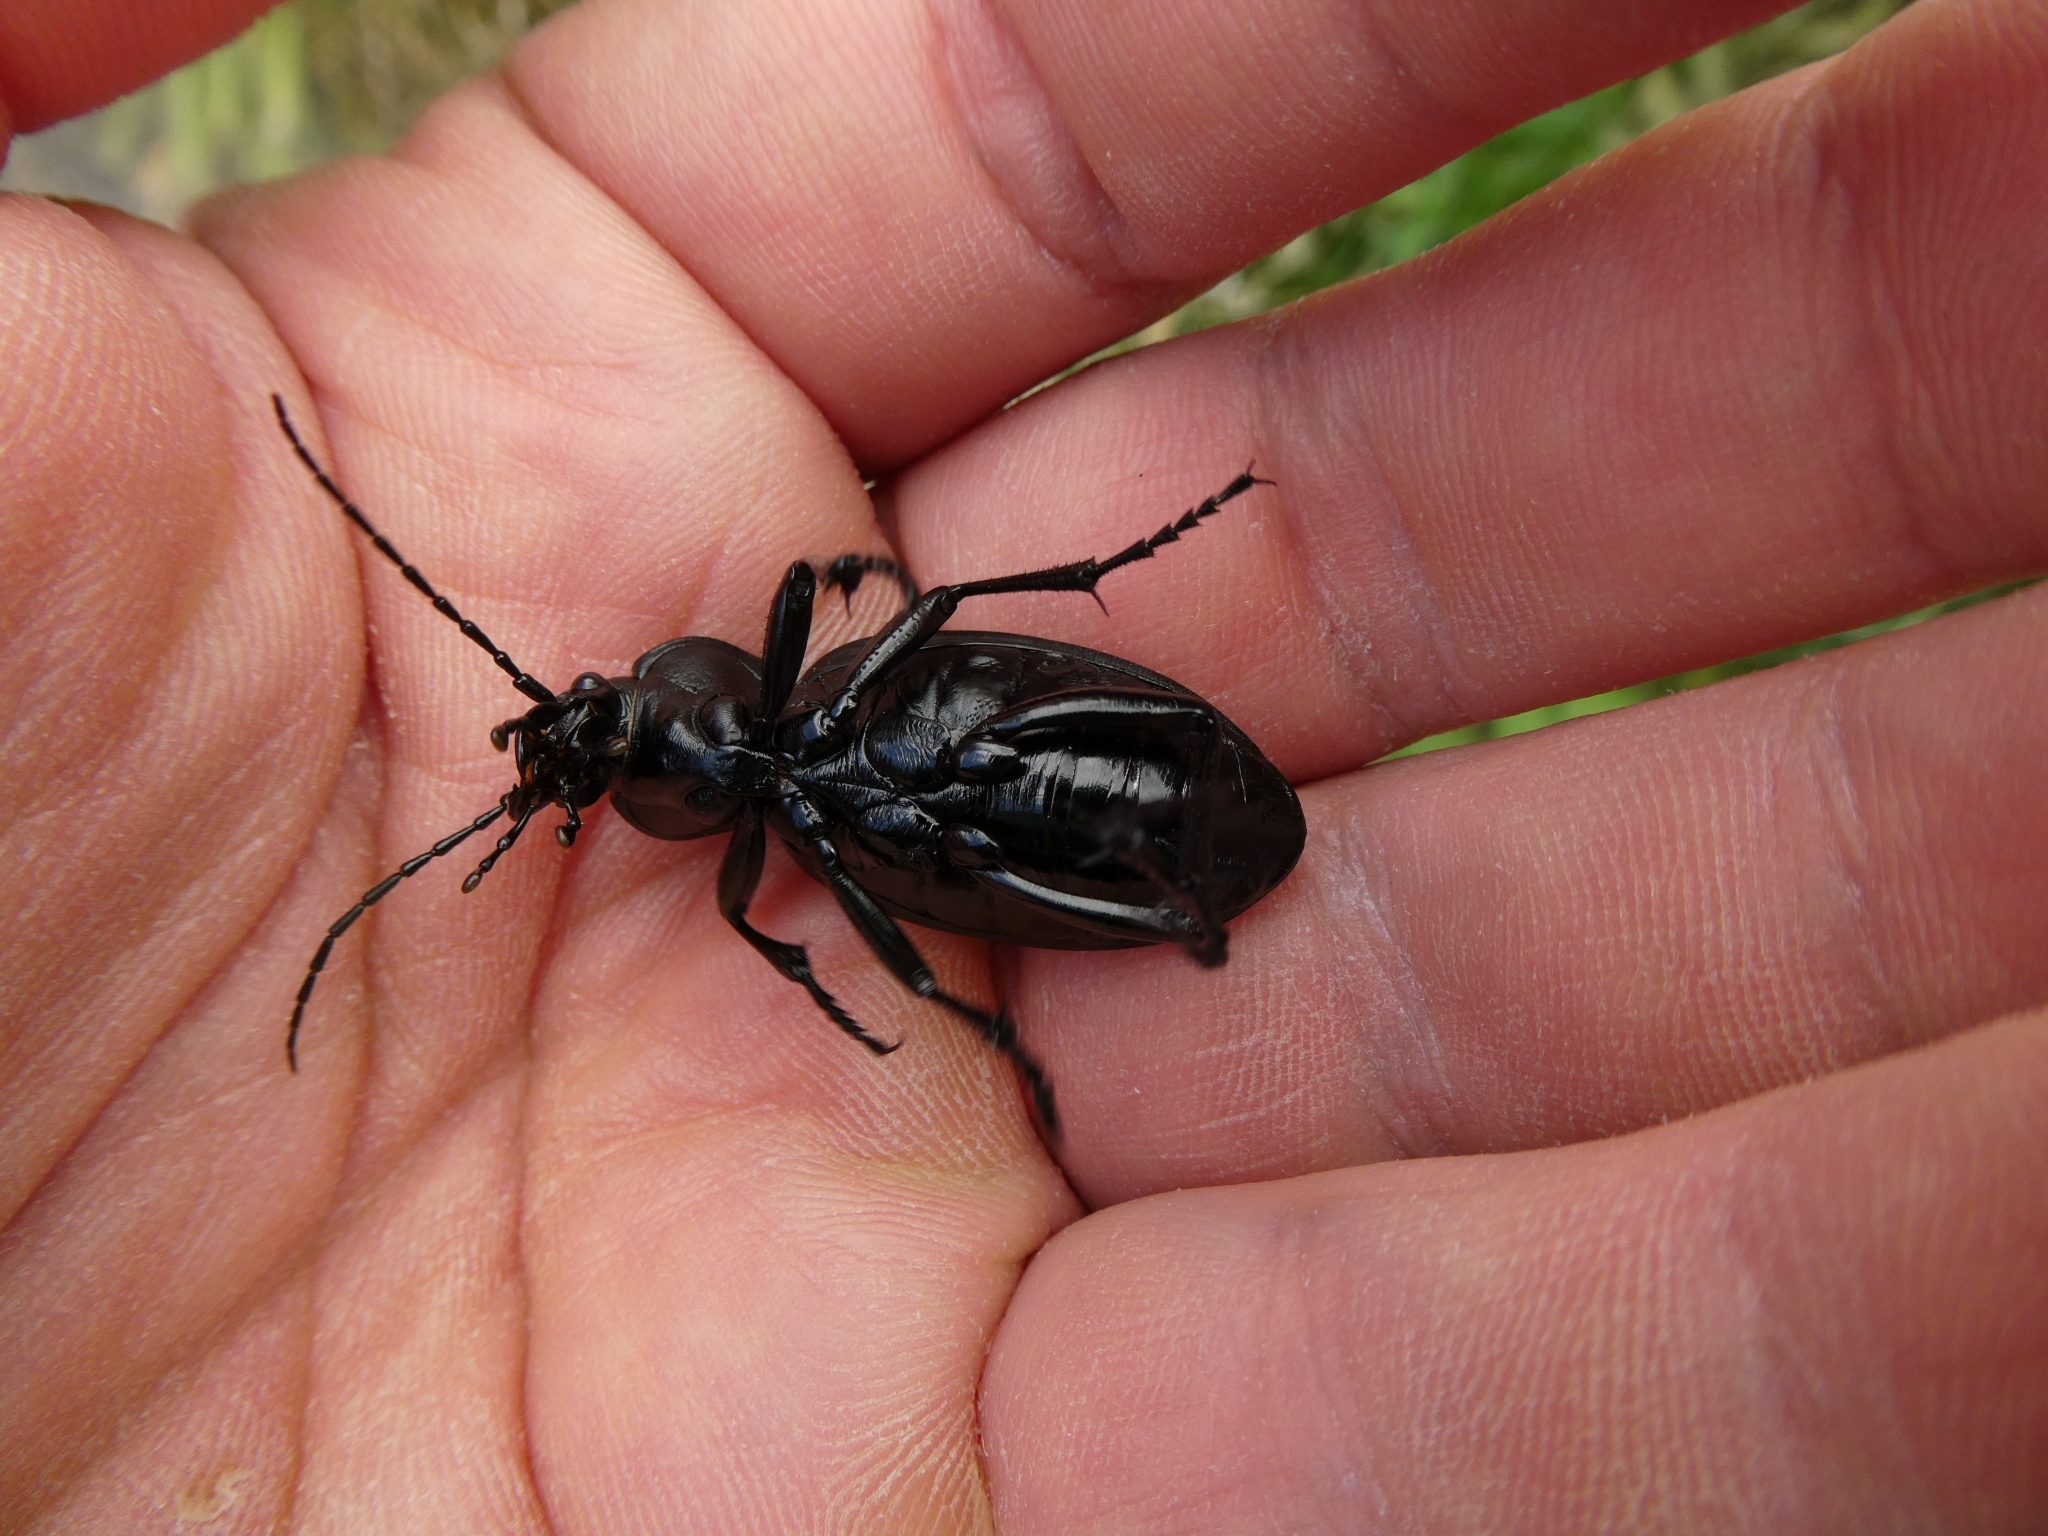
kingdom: Animalia
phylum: Arthropoda
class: Insecta
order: Coleoptera
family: Carabidae
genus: Carabus
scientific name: Carabus coriaceus
